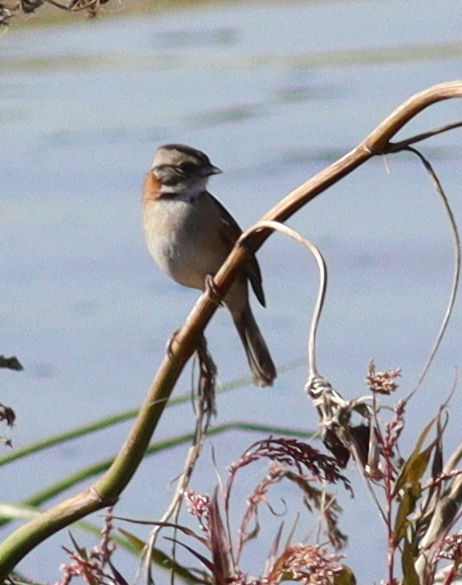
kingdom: Animalia
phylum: Chordata
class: Aves
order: Passeriformes
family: Passerellidae
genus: Zonotrichia
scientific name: Zonotrichia capensis
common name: Rufous-collared sparrow
